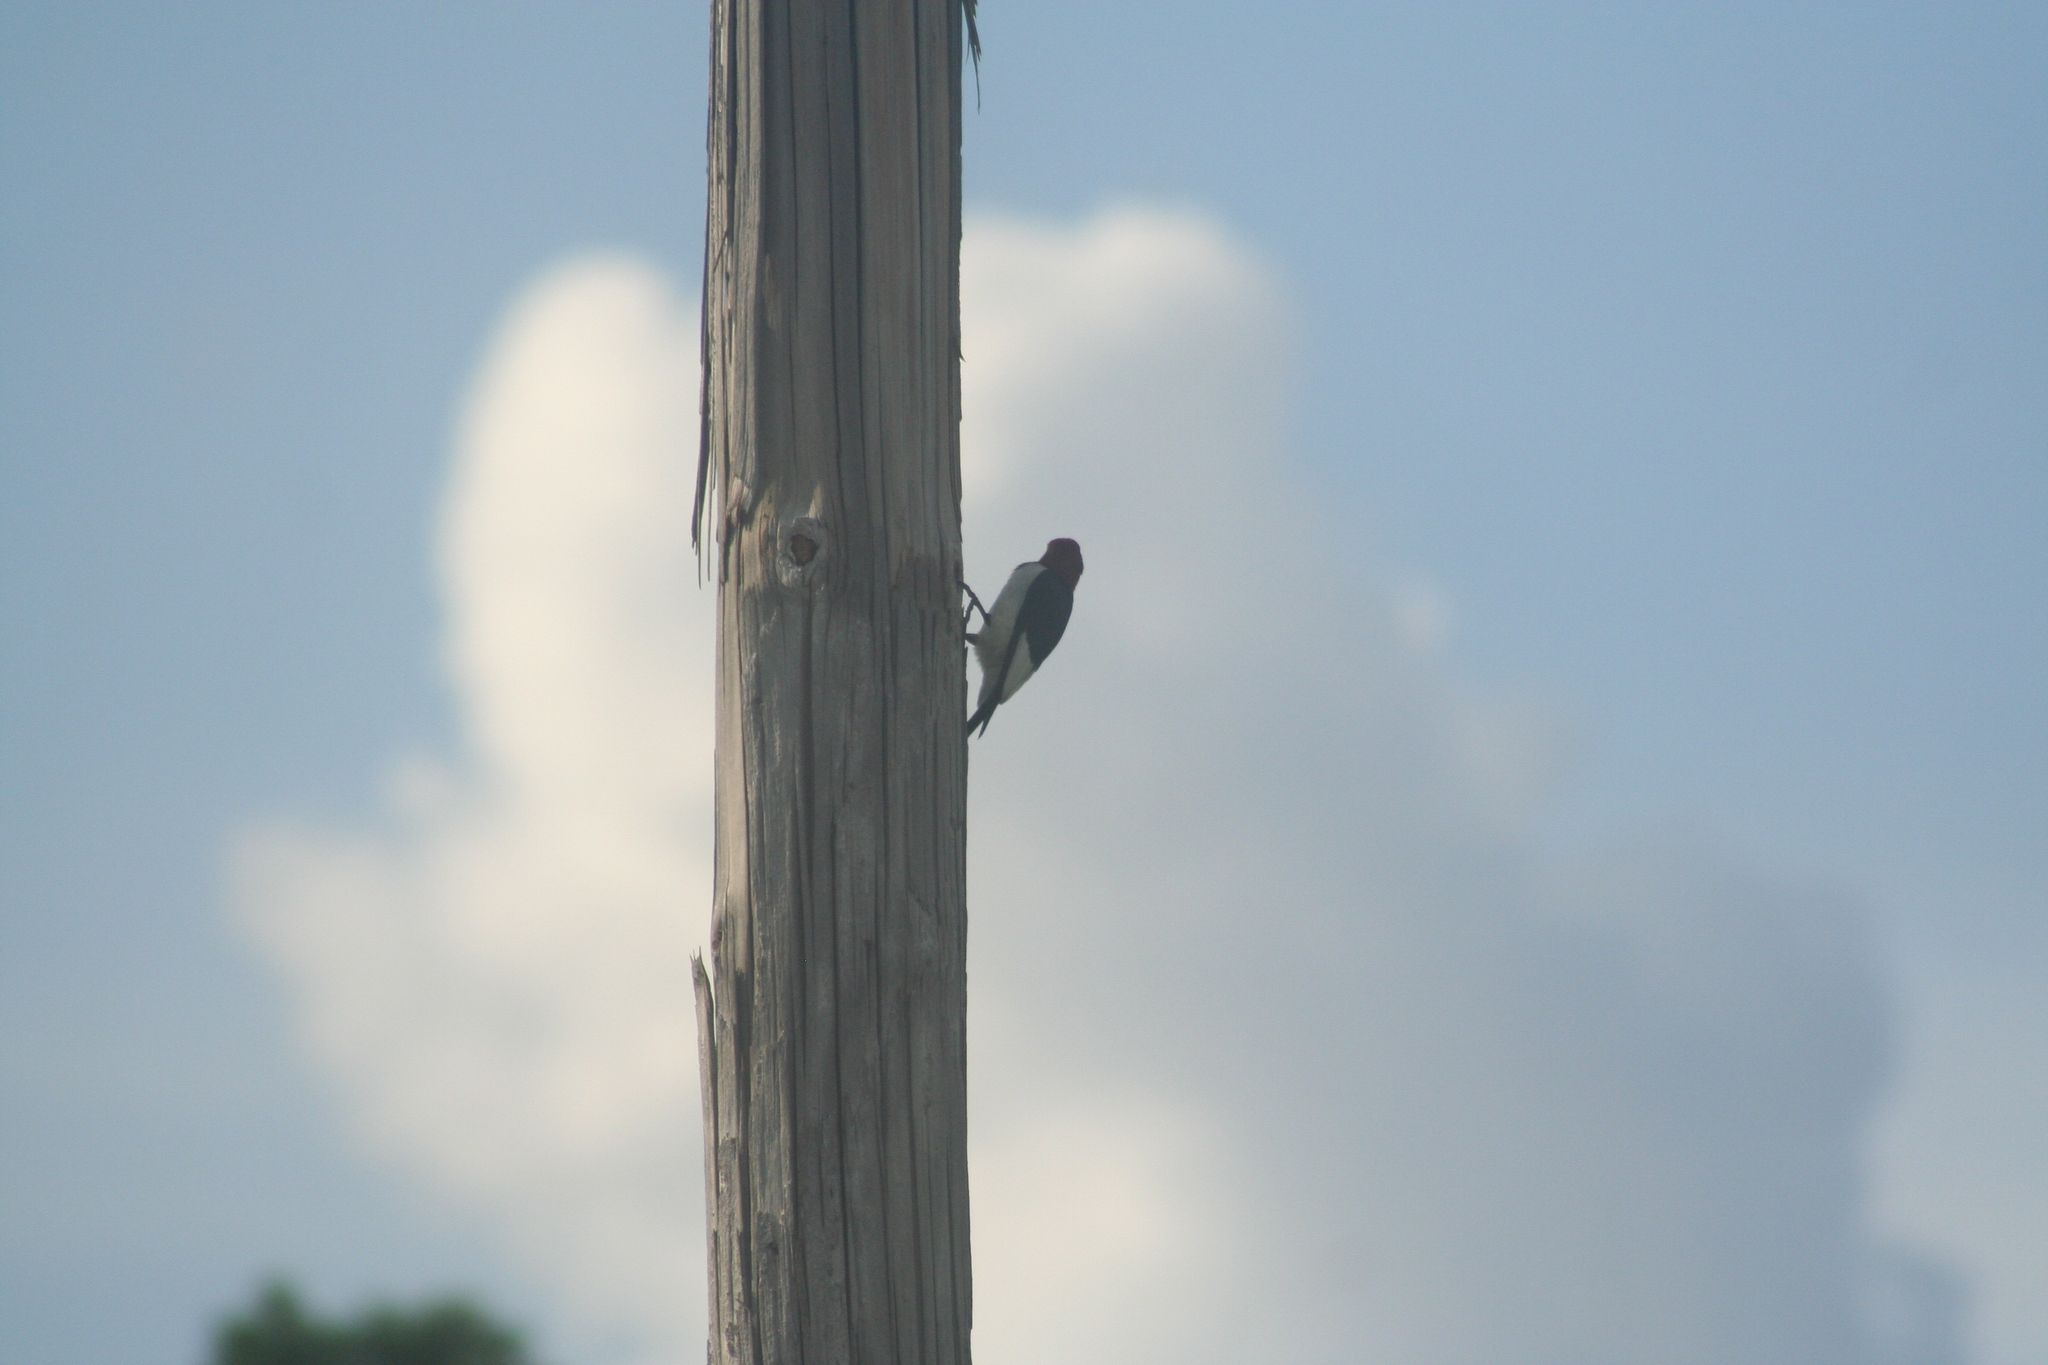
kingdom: Animalia
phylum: Chordata
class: Aves
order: Piciformes
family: Picidae
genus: Melanerpes
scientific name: Melanerpes erythrocephalus
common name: Red-headed woodpecker
